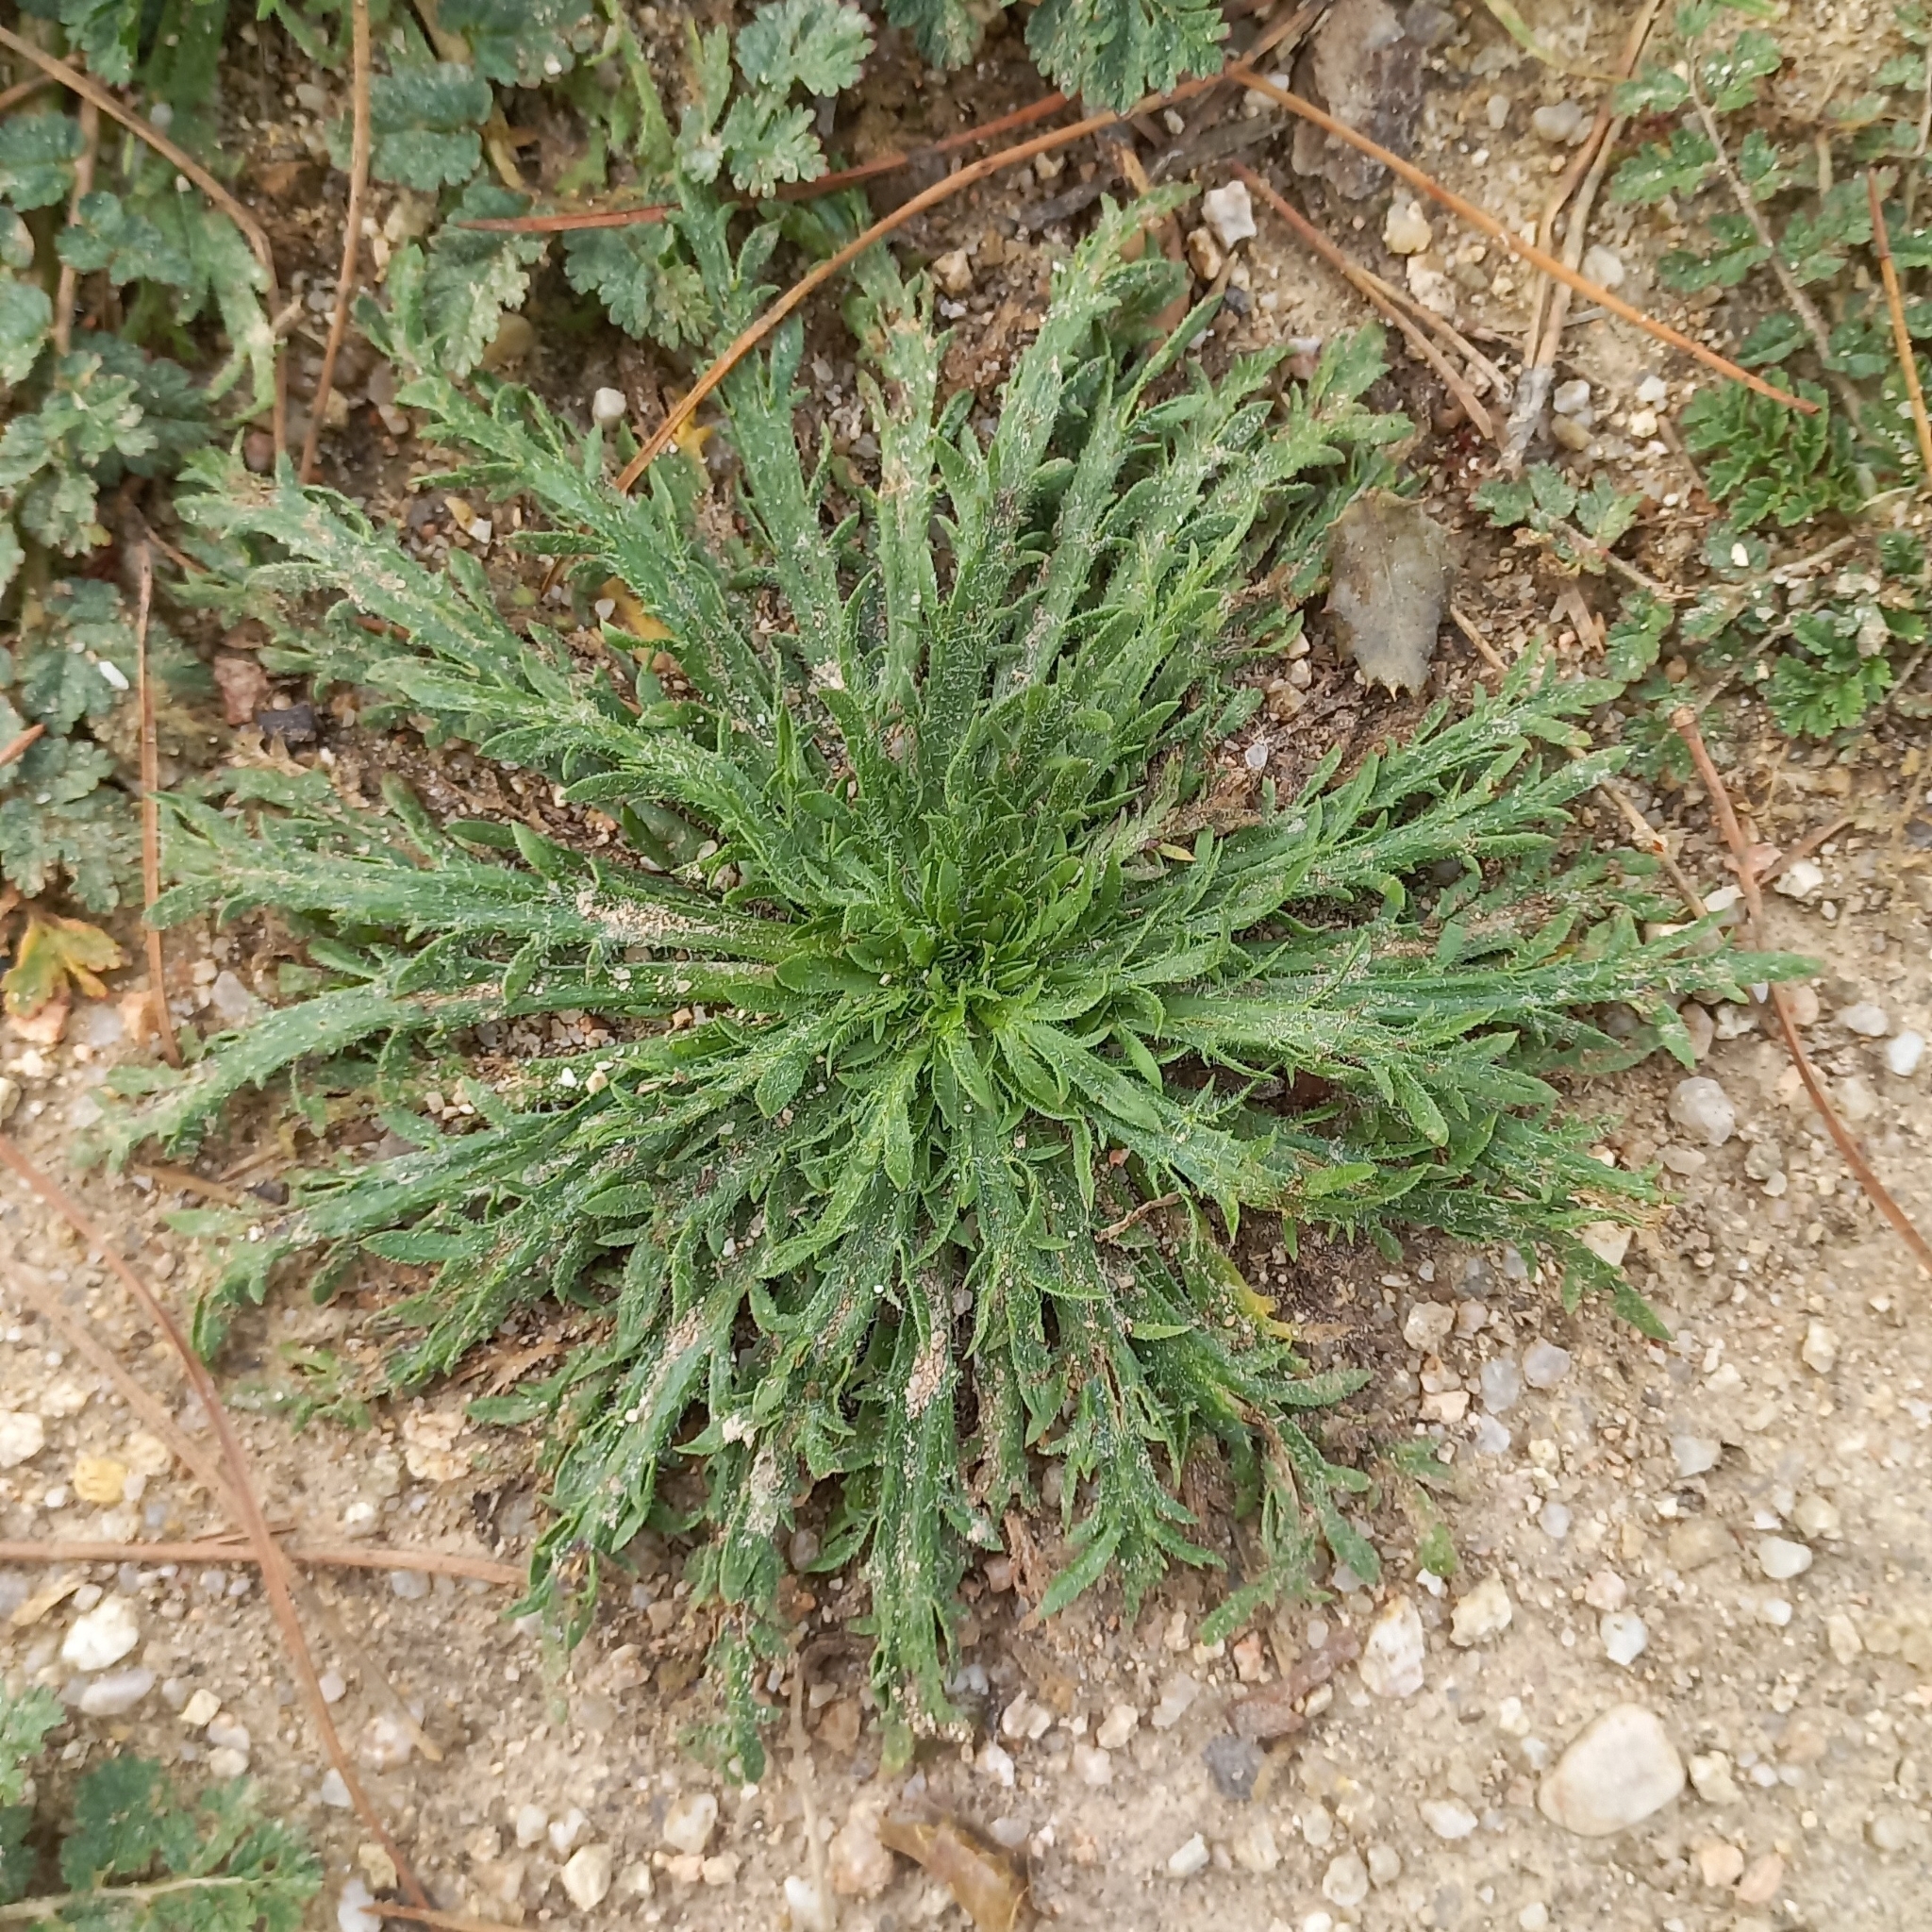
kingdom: Plantae
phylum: Tracheophyta
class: Magnoliopsida
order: Lamiales
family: Plantaginaceae
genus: Plantago
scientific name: Plantago coronopus
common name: Buck's-horn plantain
